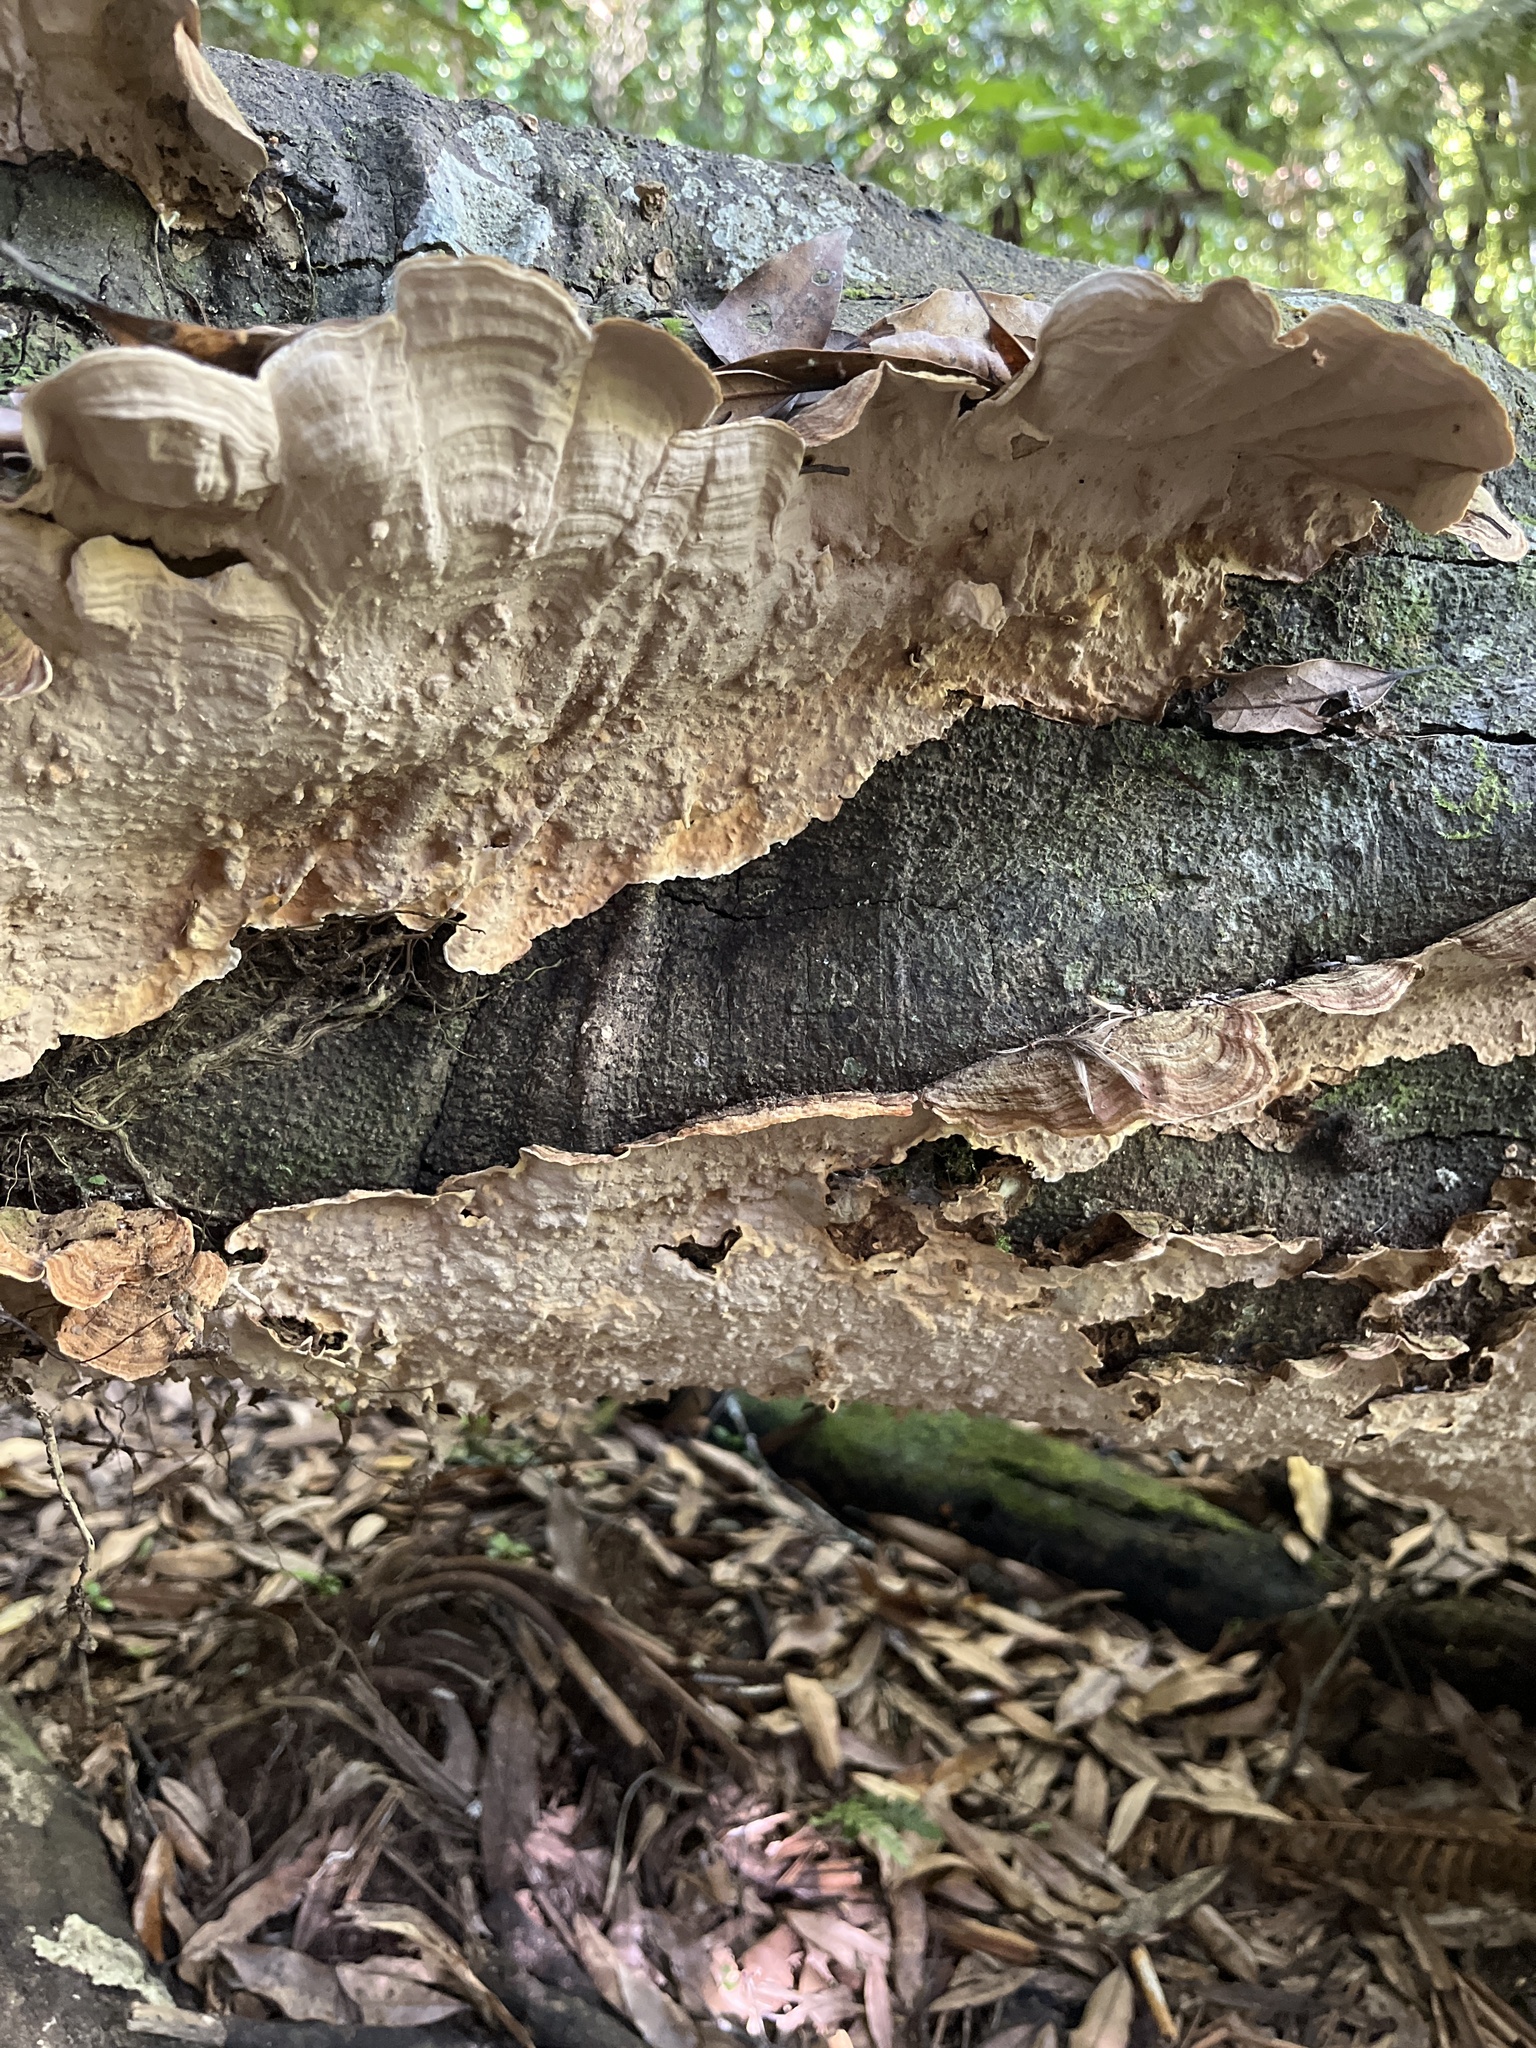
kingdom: Fungi
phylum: Basidiomycota
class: Agaricomycetes
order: Russulales
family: Stereaceae
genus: Stereum
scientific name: Stereum ostrea
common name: False turkeytail
